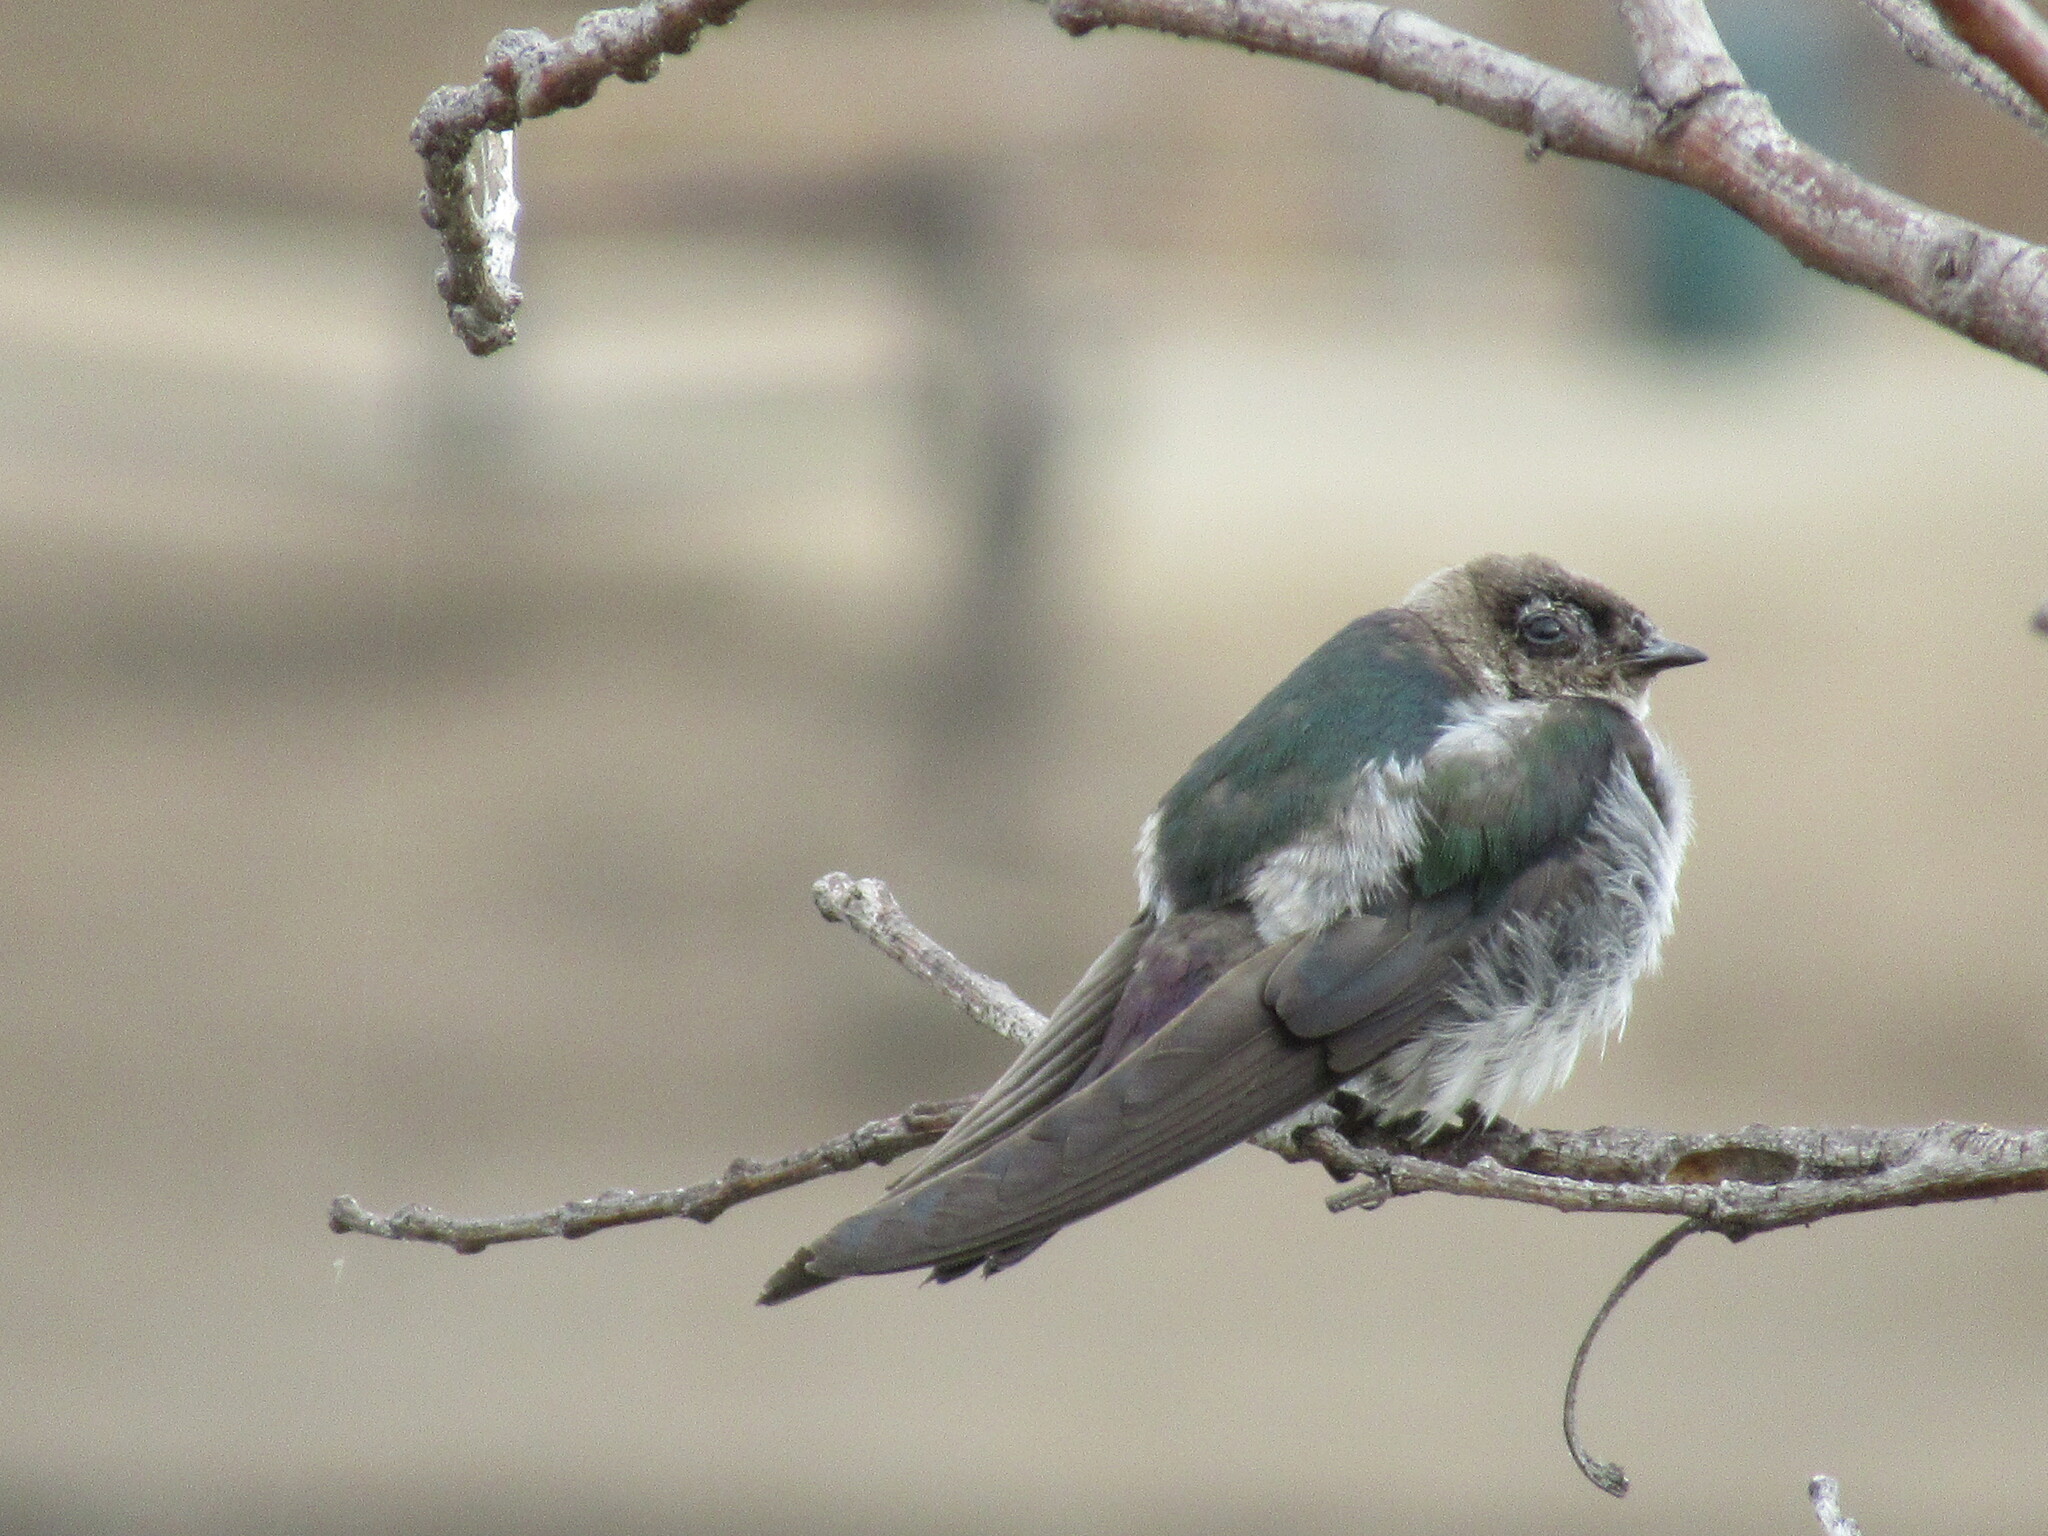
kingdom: Animalia
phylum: Chordata
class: Aves
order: Passeriformes
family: Hirundinidae
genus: Tachycineta
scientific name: Tachycineta thalassina
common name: Violet-green swallow
